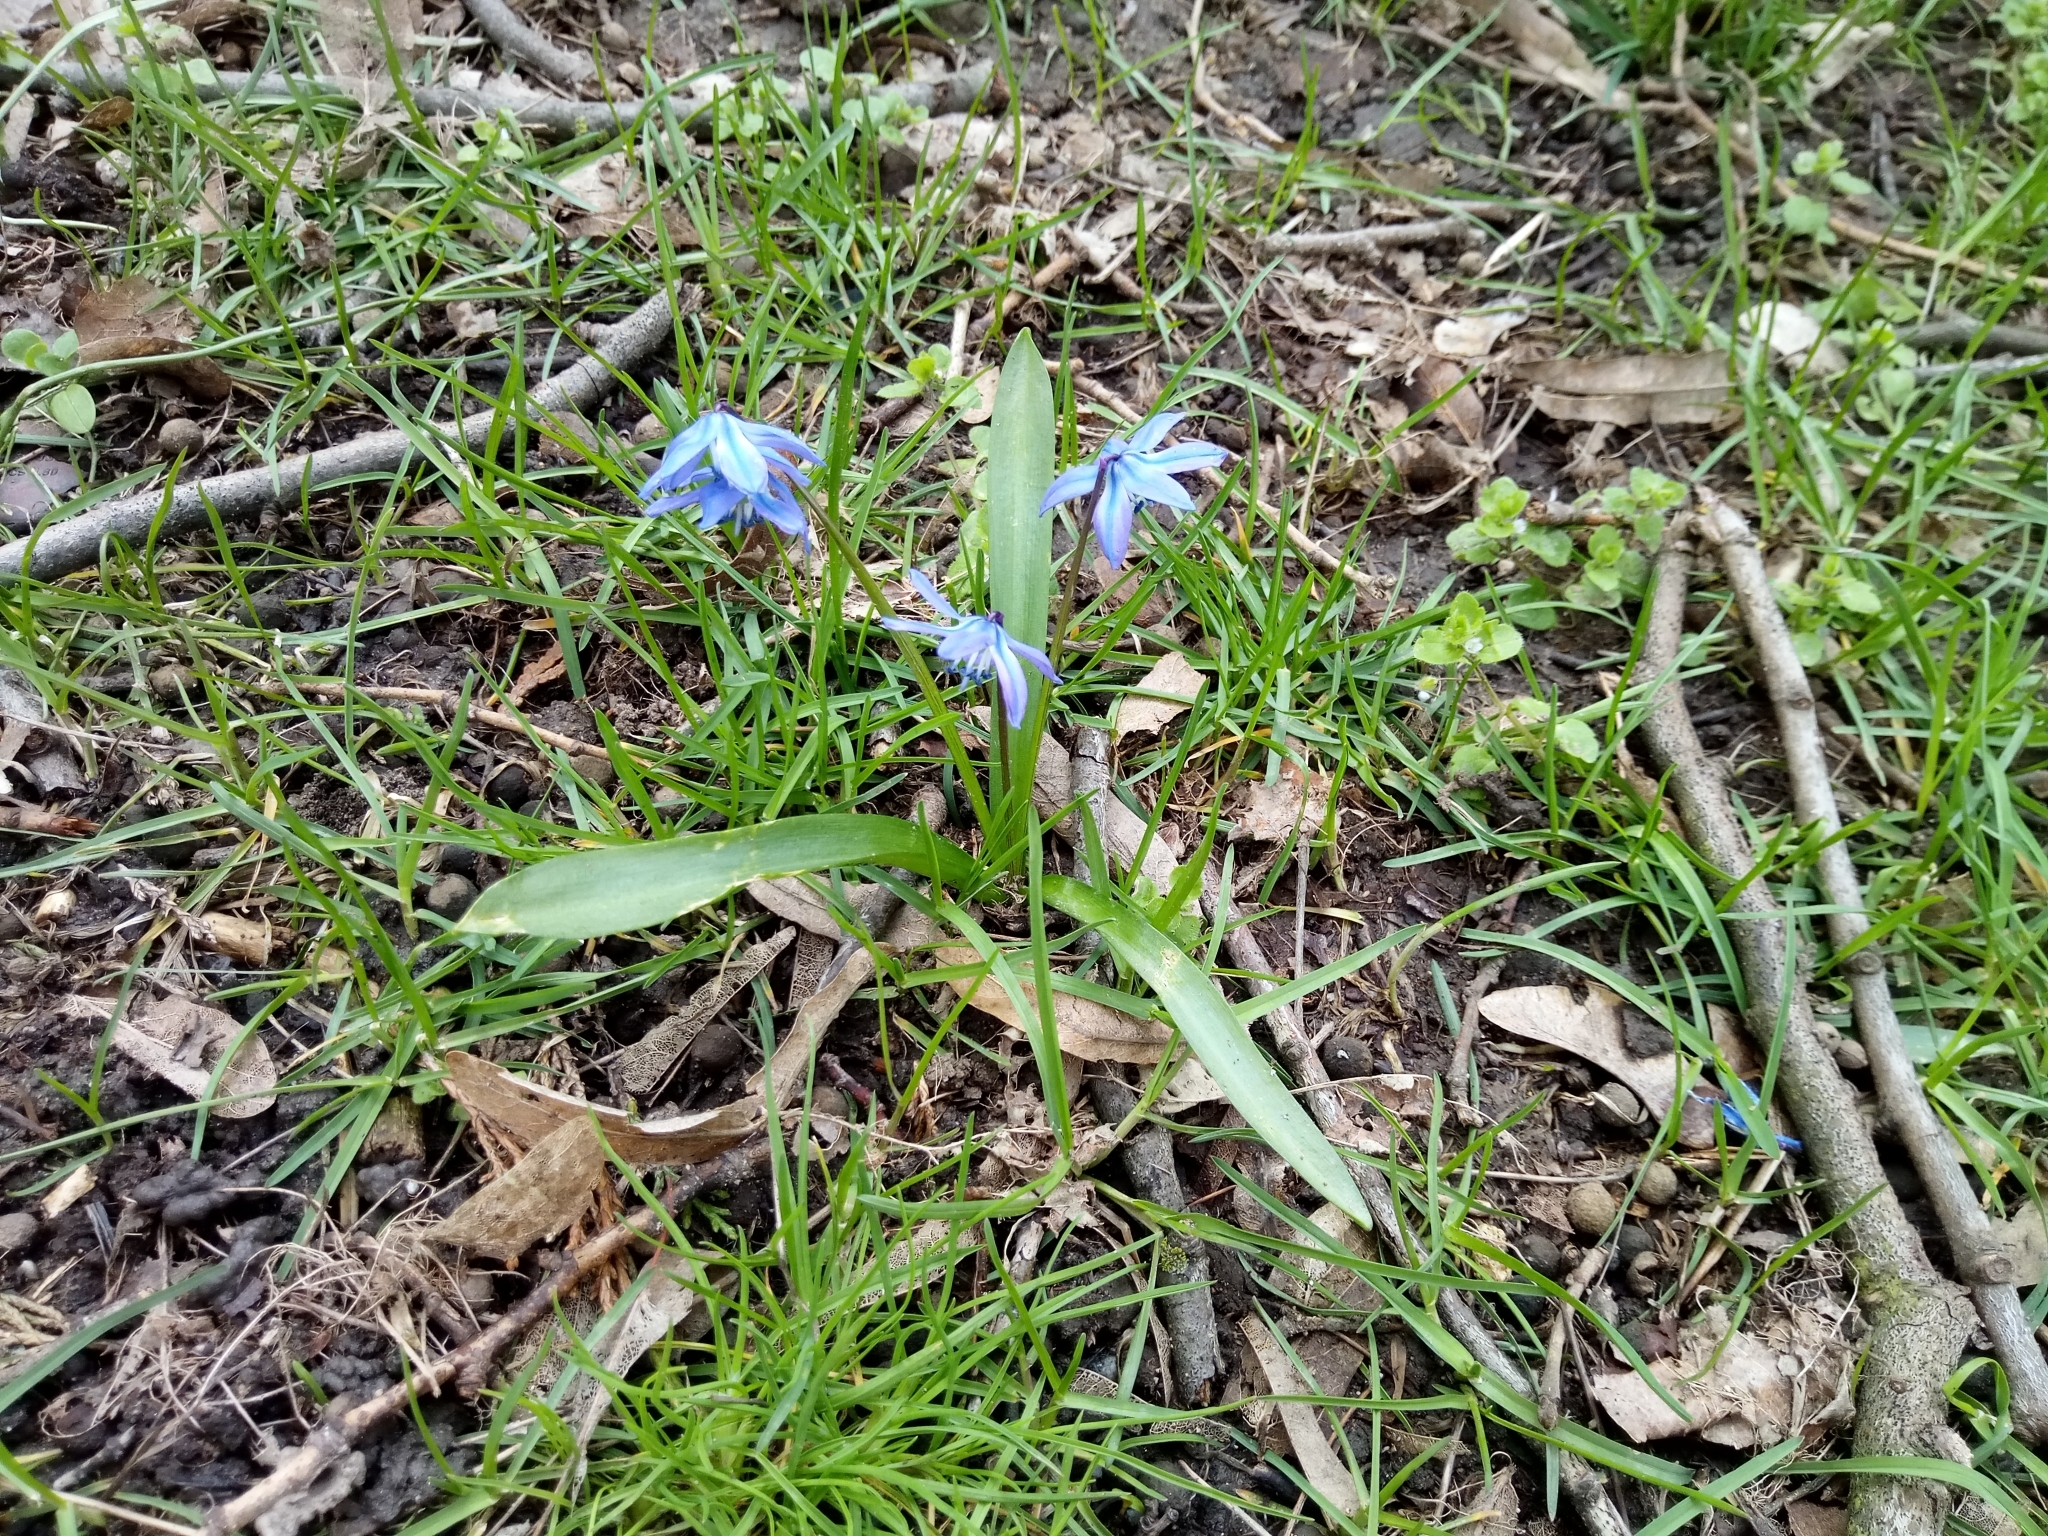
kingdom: Plantae
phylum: Tracheophyta
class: Liliopsida
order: Asparagales
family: Asparagaceae
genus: Scilla
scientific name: Scilla siberica
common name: Siberian squill
